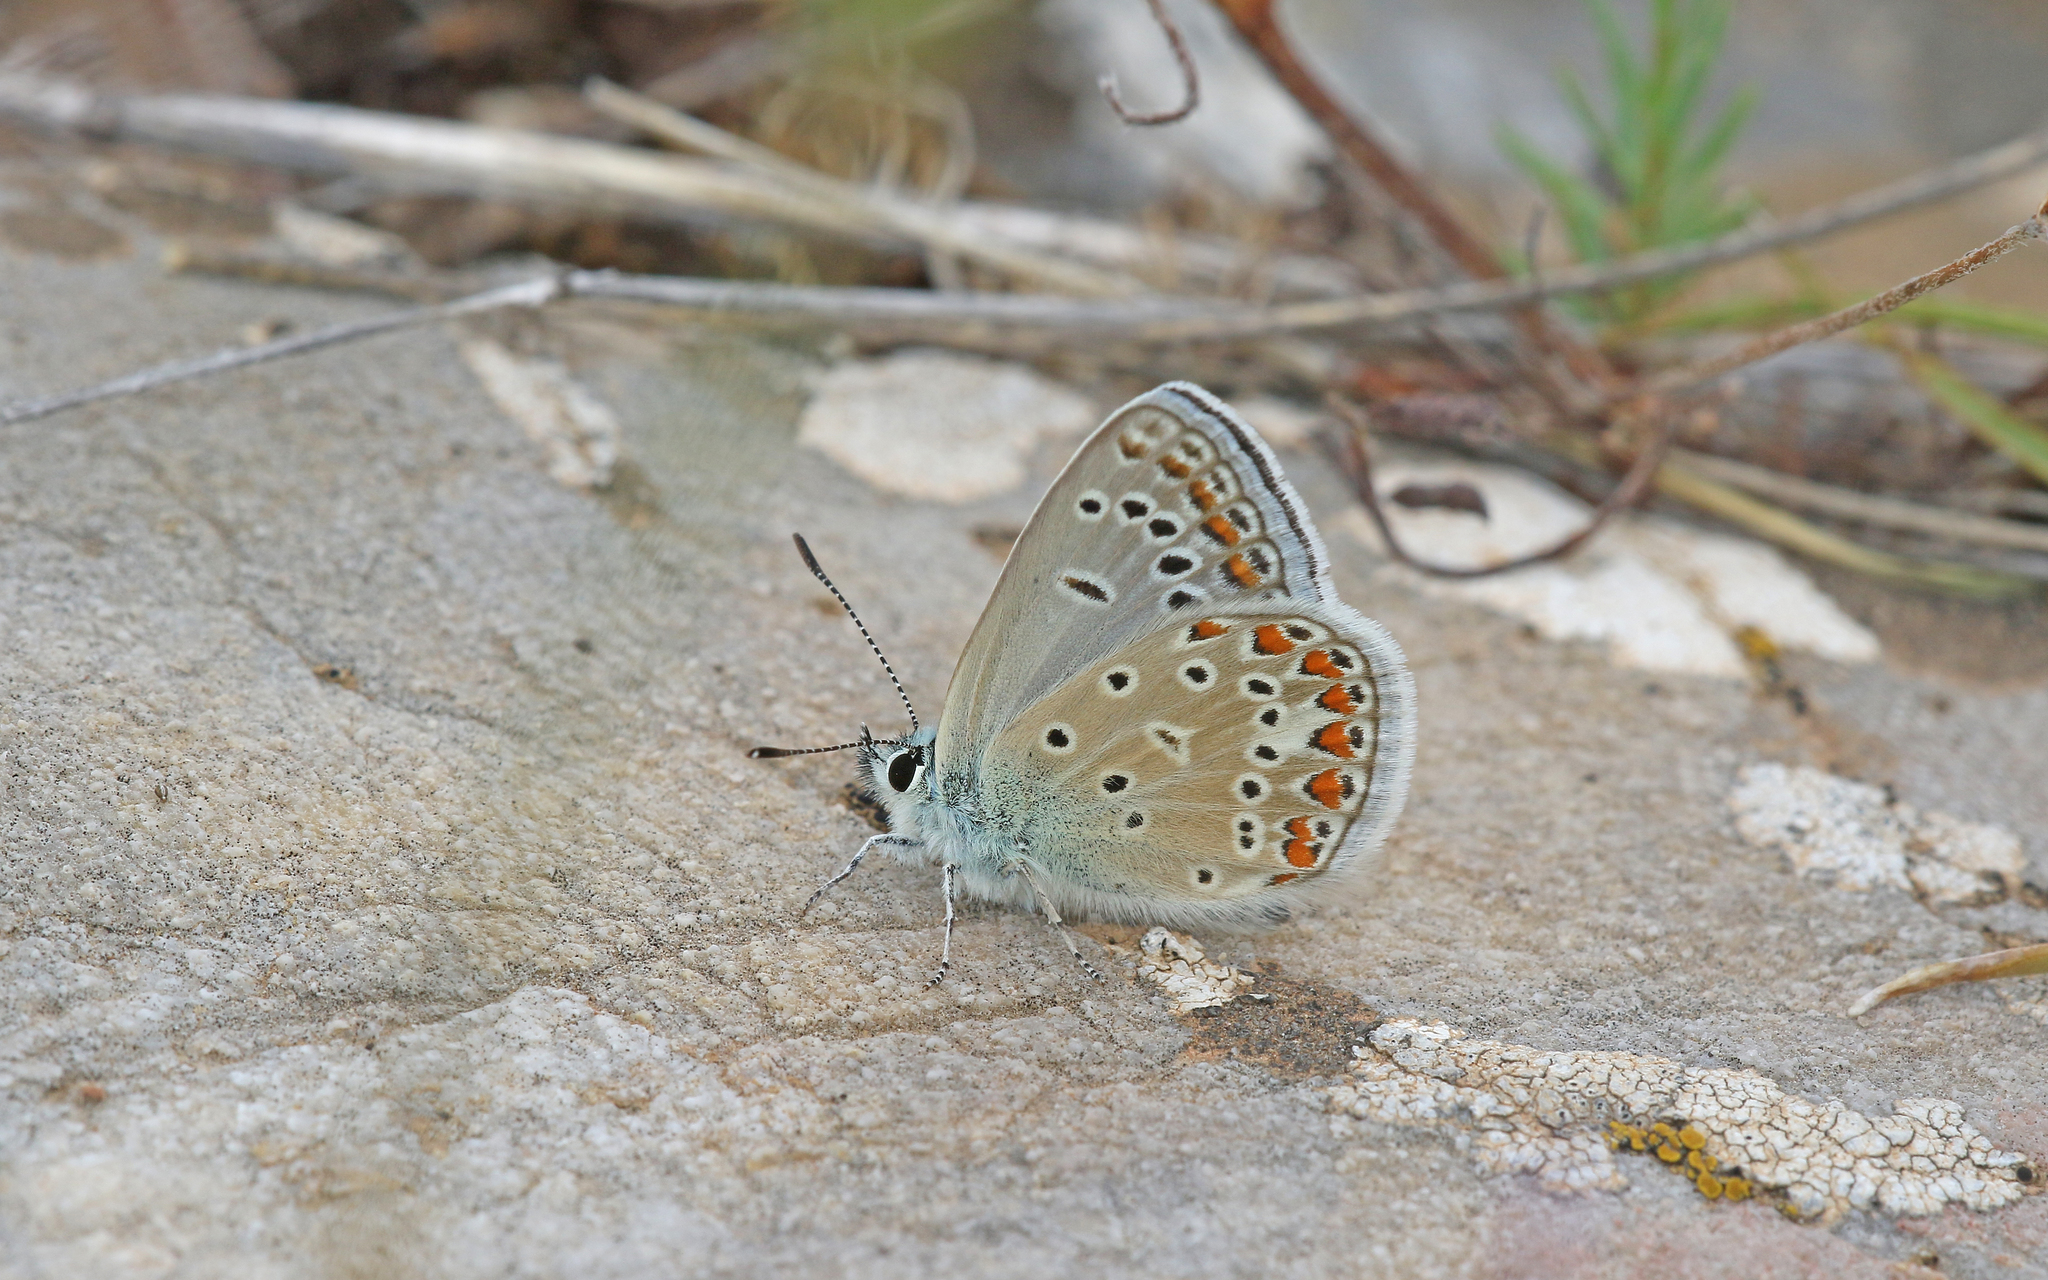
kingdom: Animalia
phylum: Arthropoda
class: Insecta
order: Lepidoptera
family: Lycaenidae
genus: Polyommatus
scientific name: Polyommatus thersites
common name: Chapman's blue
